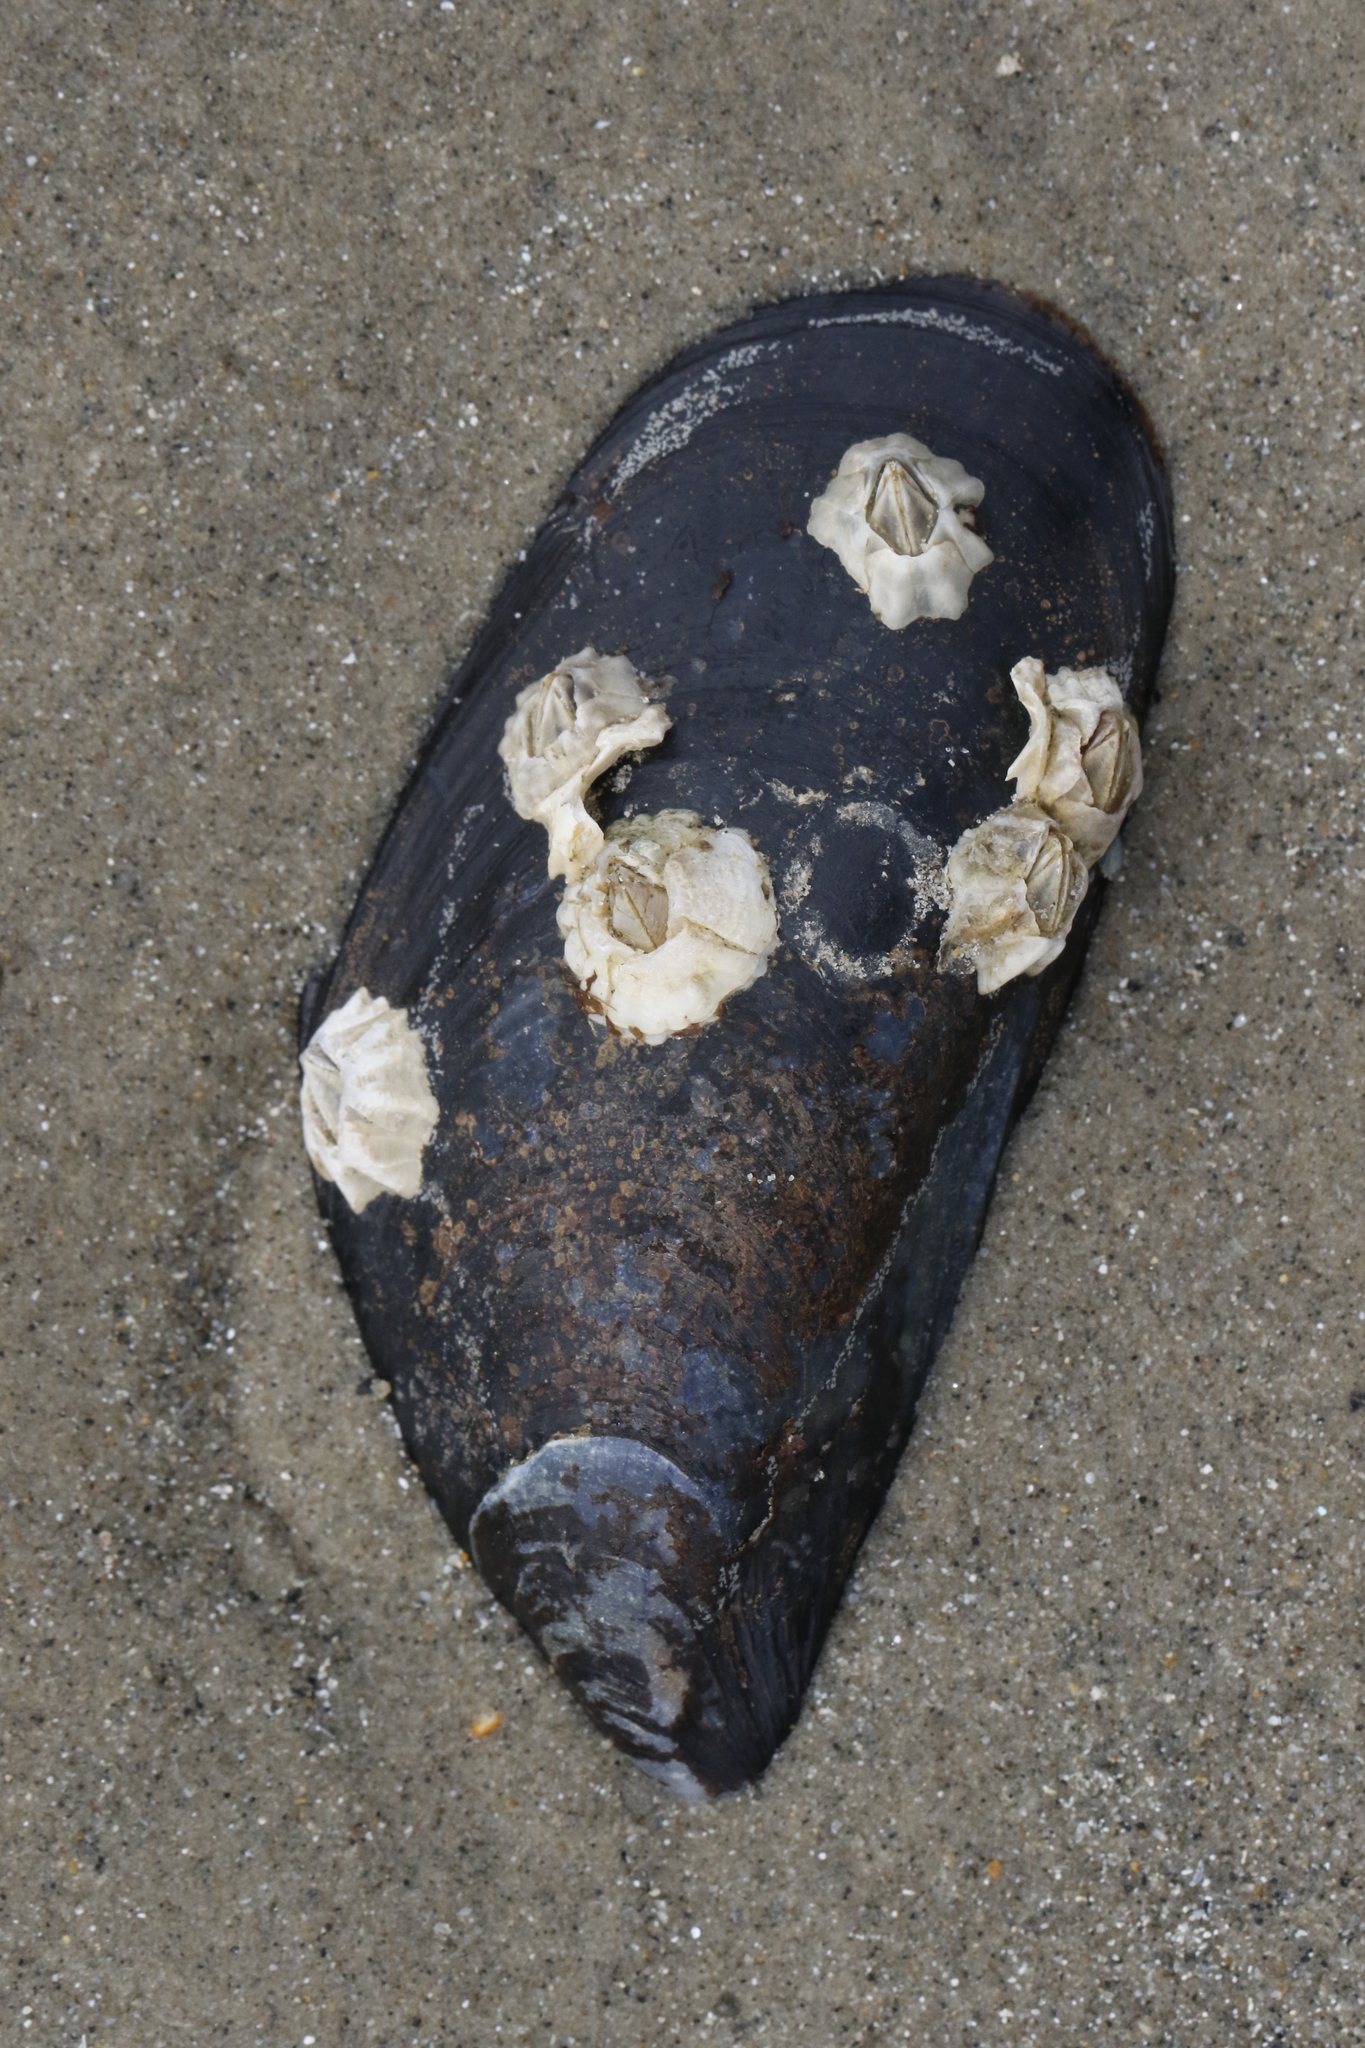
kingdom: Animalia
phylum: Mollusca
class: Bivalvia
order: Mytilida
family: Mytilidae
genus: Mytilus
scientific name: Mytilus edulis
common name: Blue mussel
